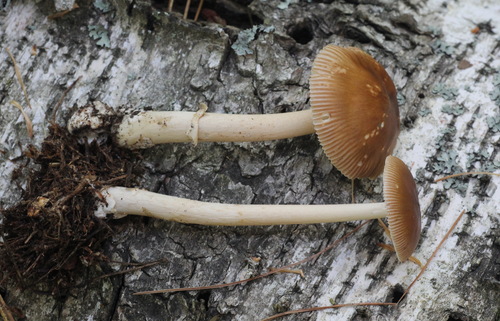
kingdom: Fungi
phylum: Basidiomycota
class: Agaricomycetes
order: Agaricales
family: Amanitaceae
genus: Amanita
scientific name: Amanita fulva
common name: Tawny grisette
